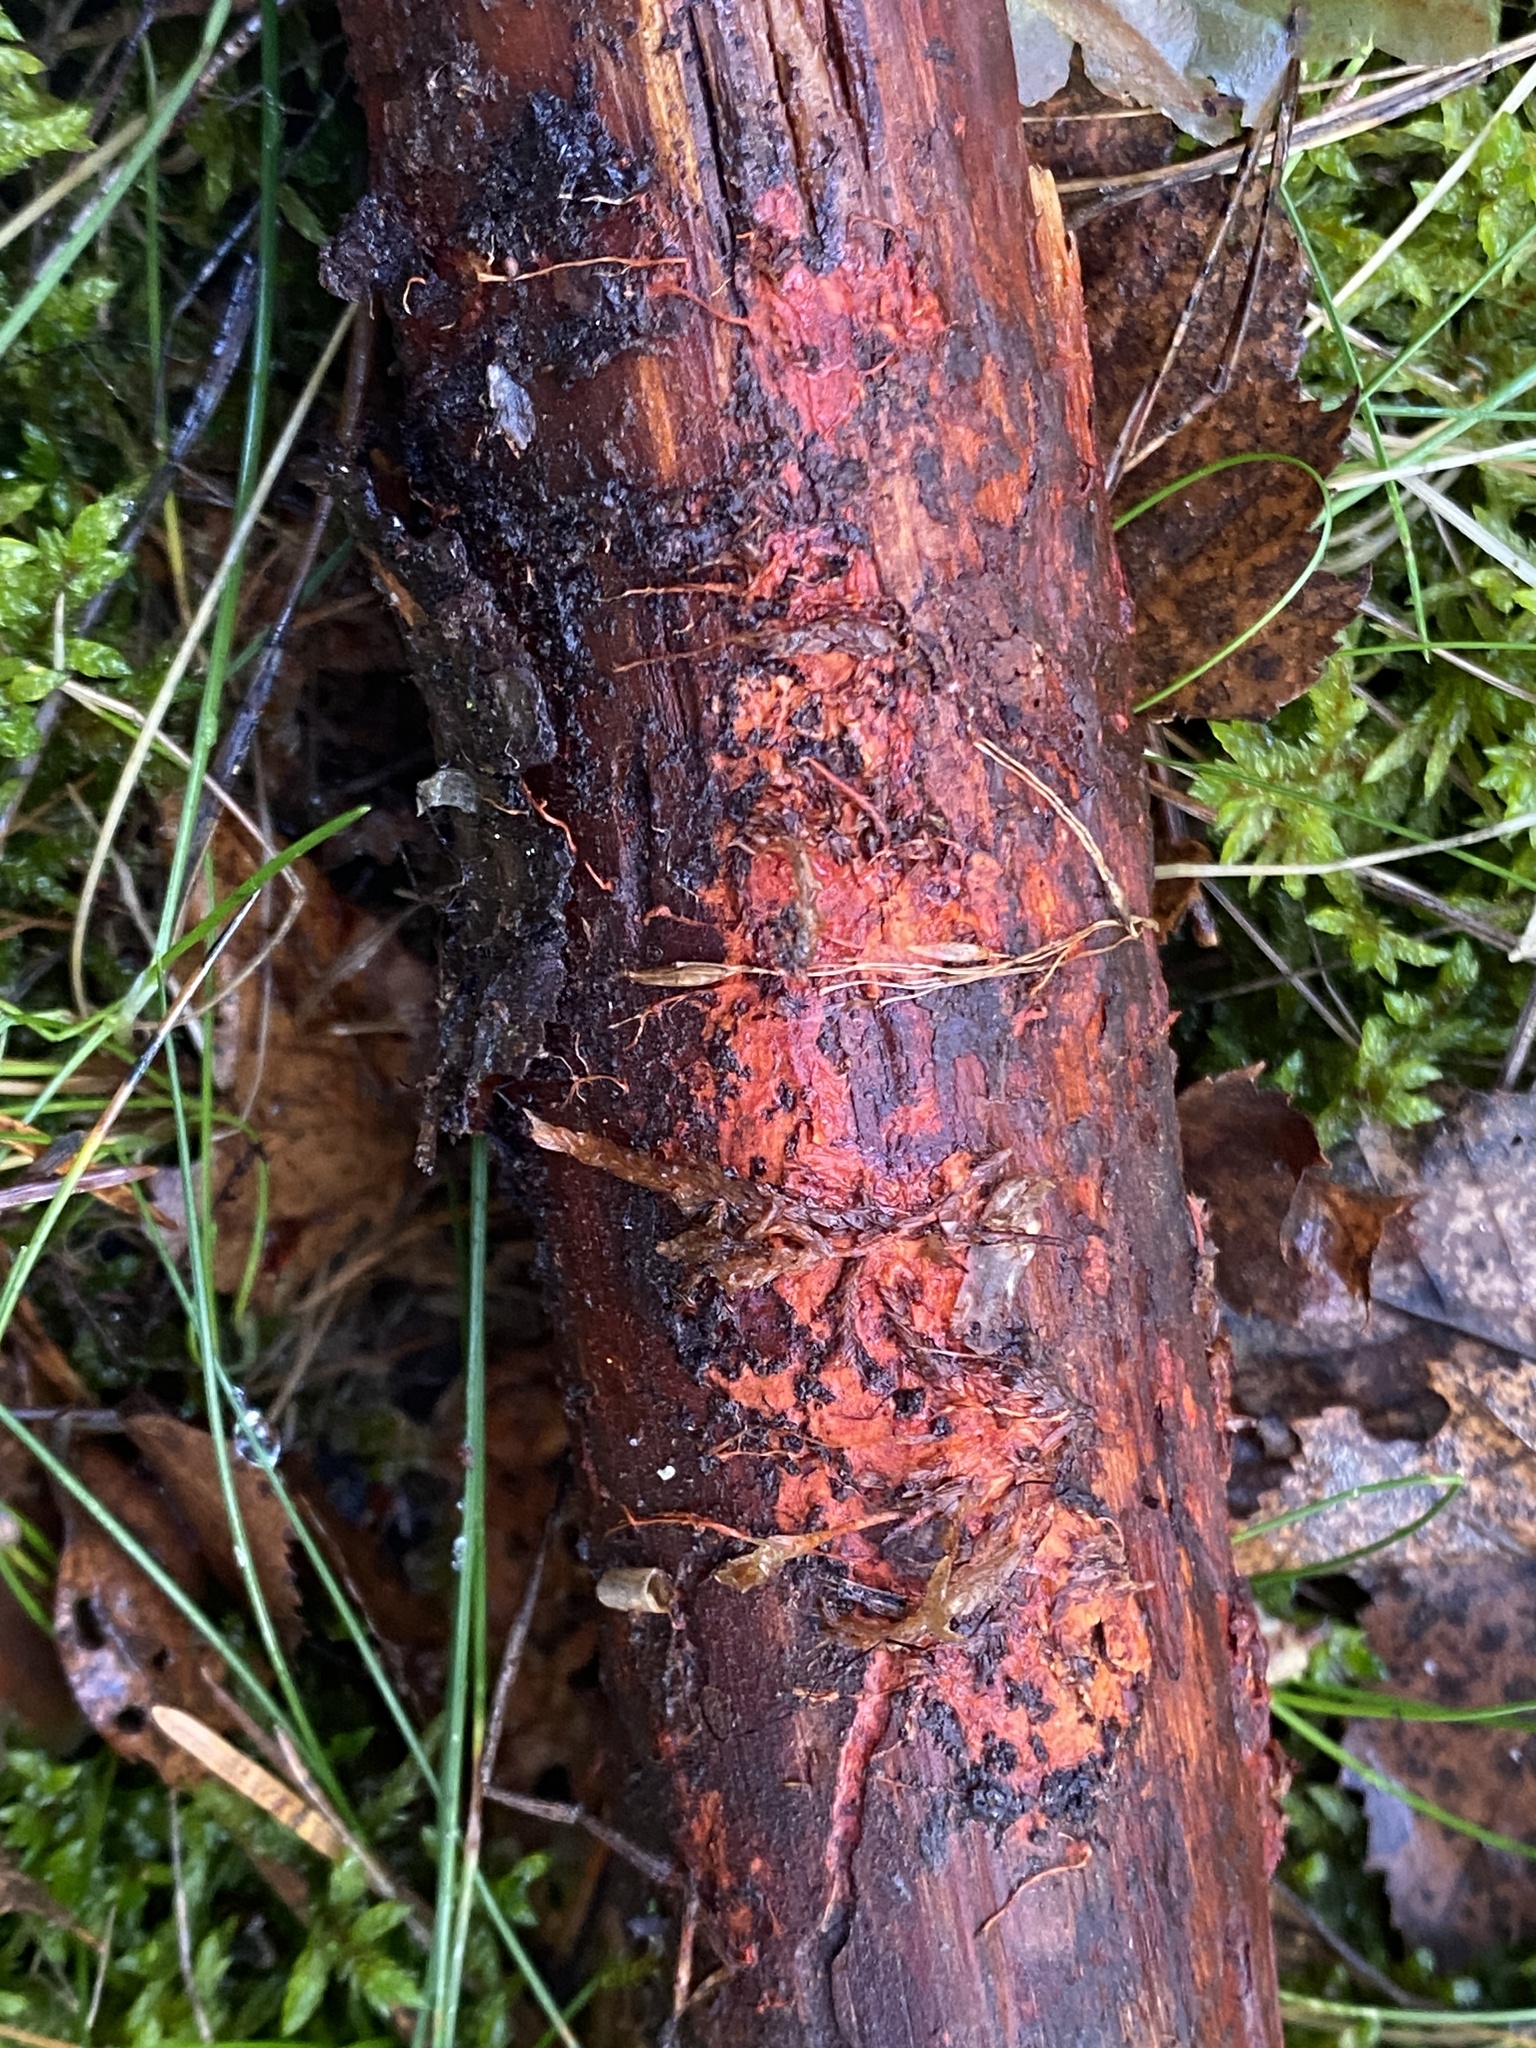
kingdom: Fungi
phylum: Basidiomycota
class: Agaricomycetes
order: Polyporales
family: Phanerochaetaceae
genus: Atheliachaete
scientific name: Atheliachaete sanguinea
